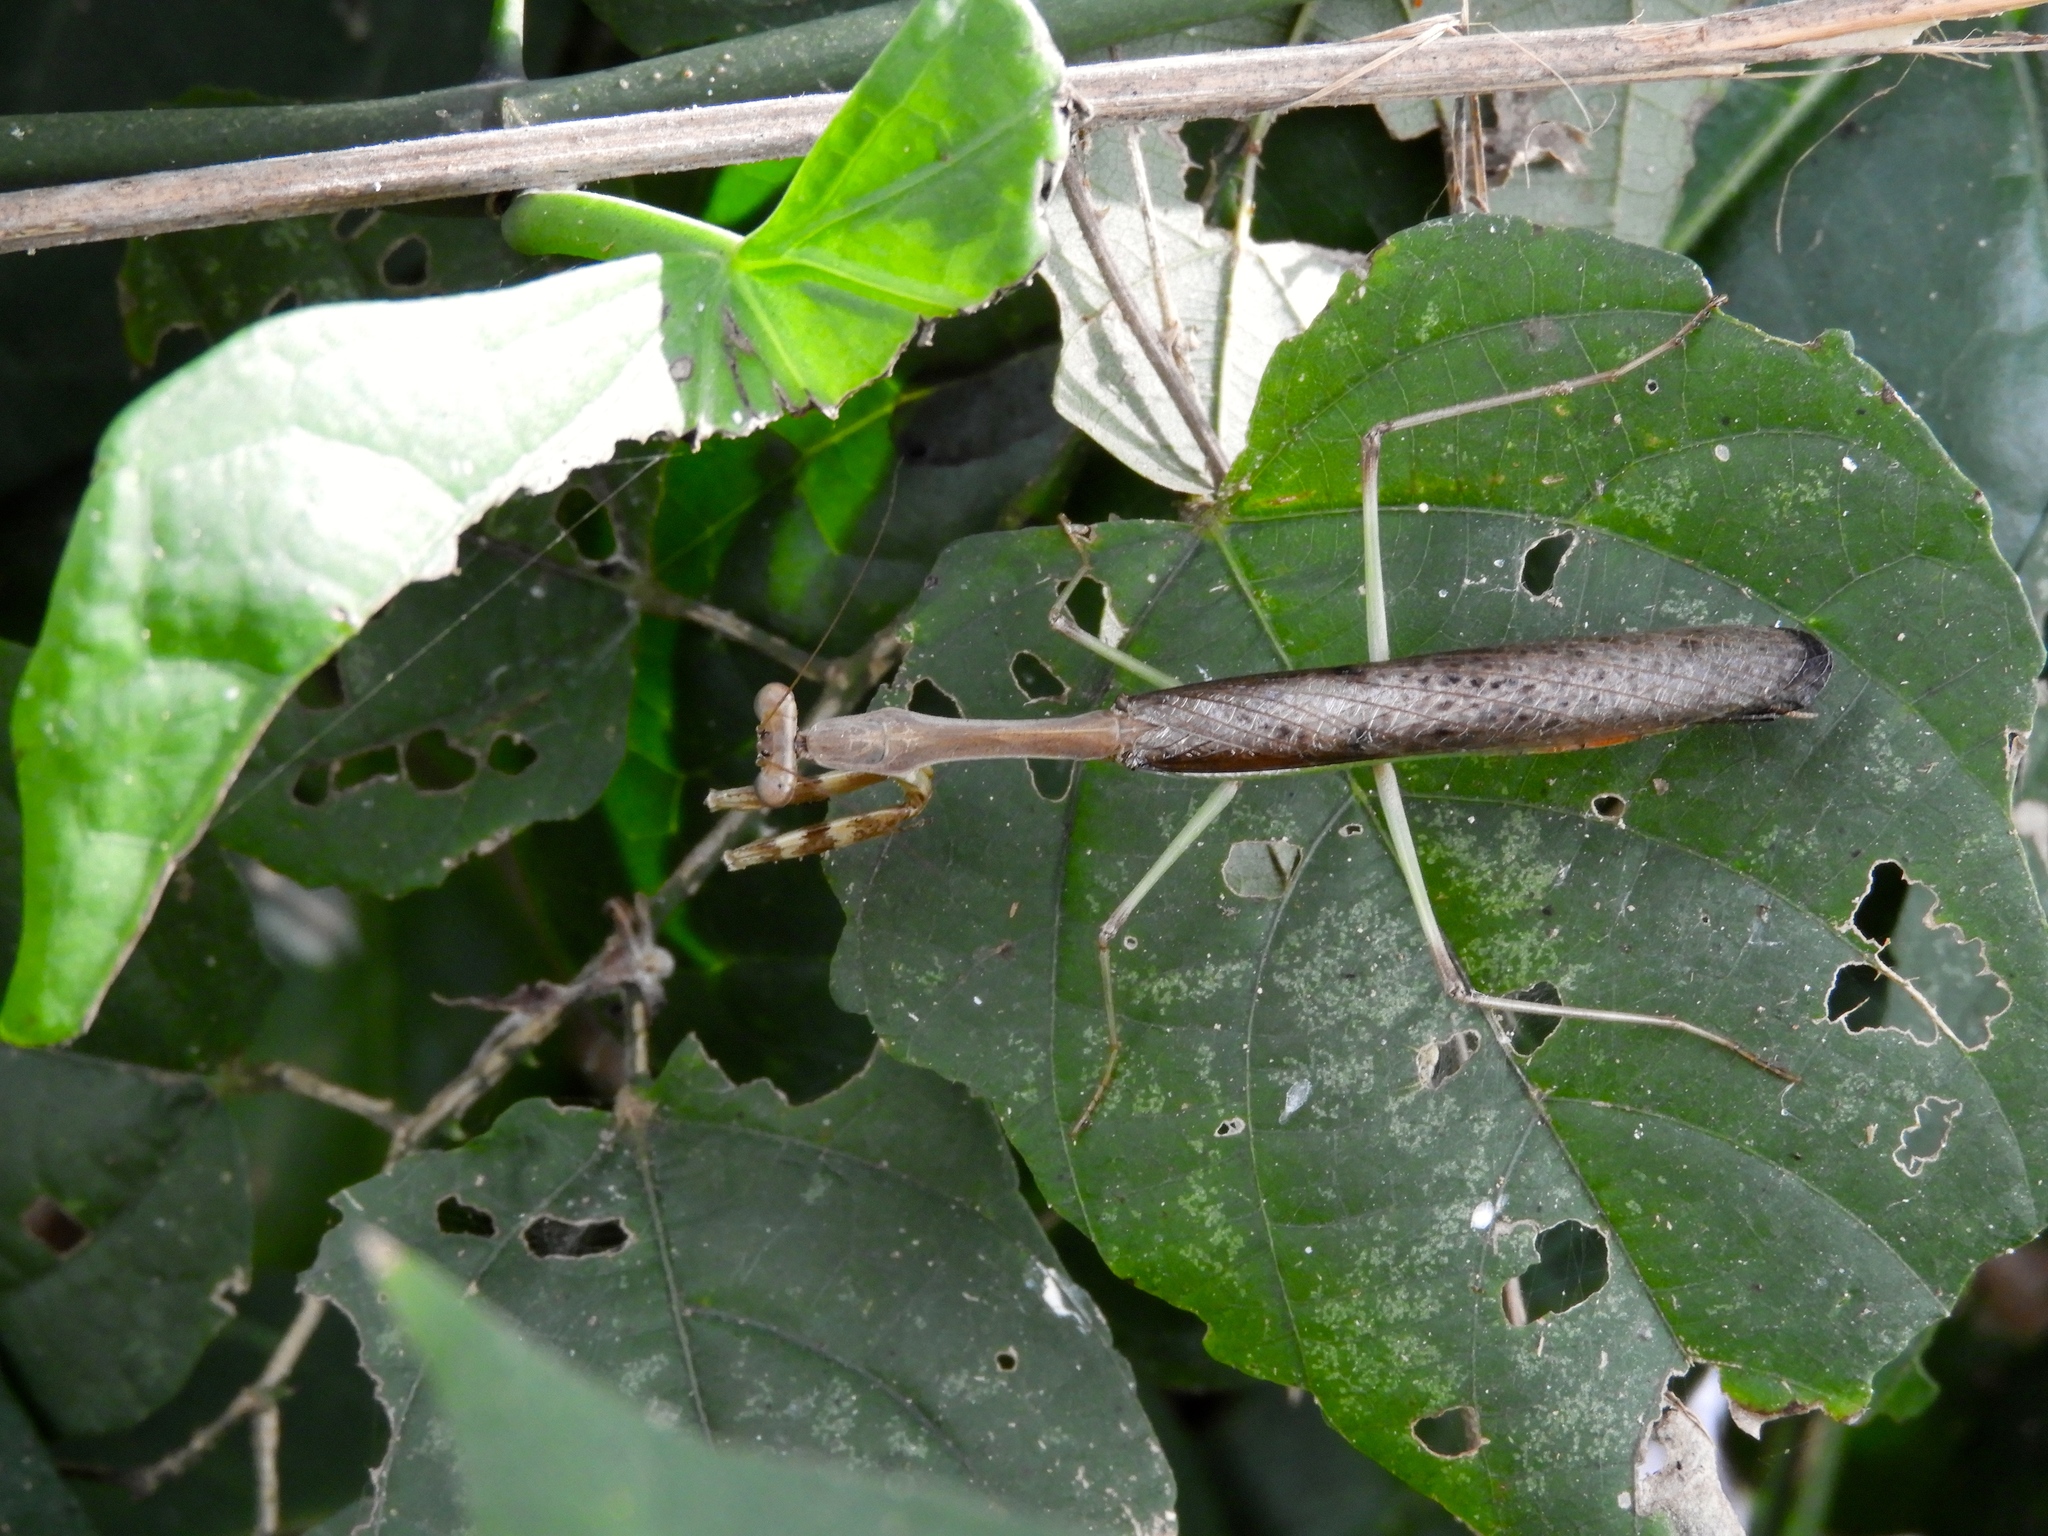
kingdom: Animalia
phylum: Arthropoda
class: Insecta
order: Mantodea
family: Mantidae
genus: Stagmomantis
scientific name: Stagmomantis
